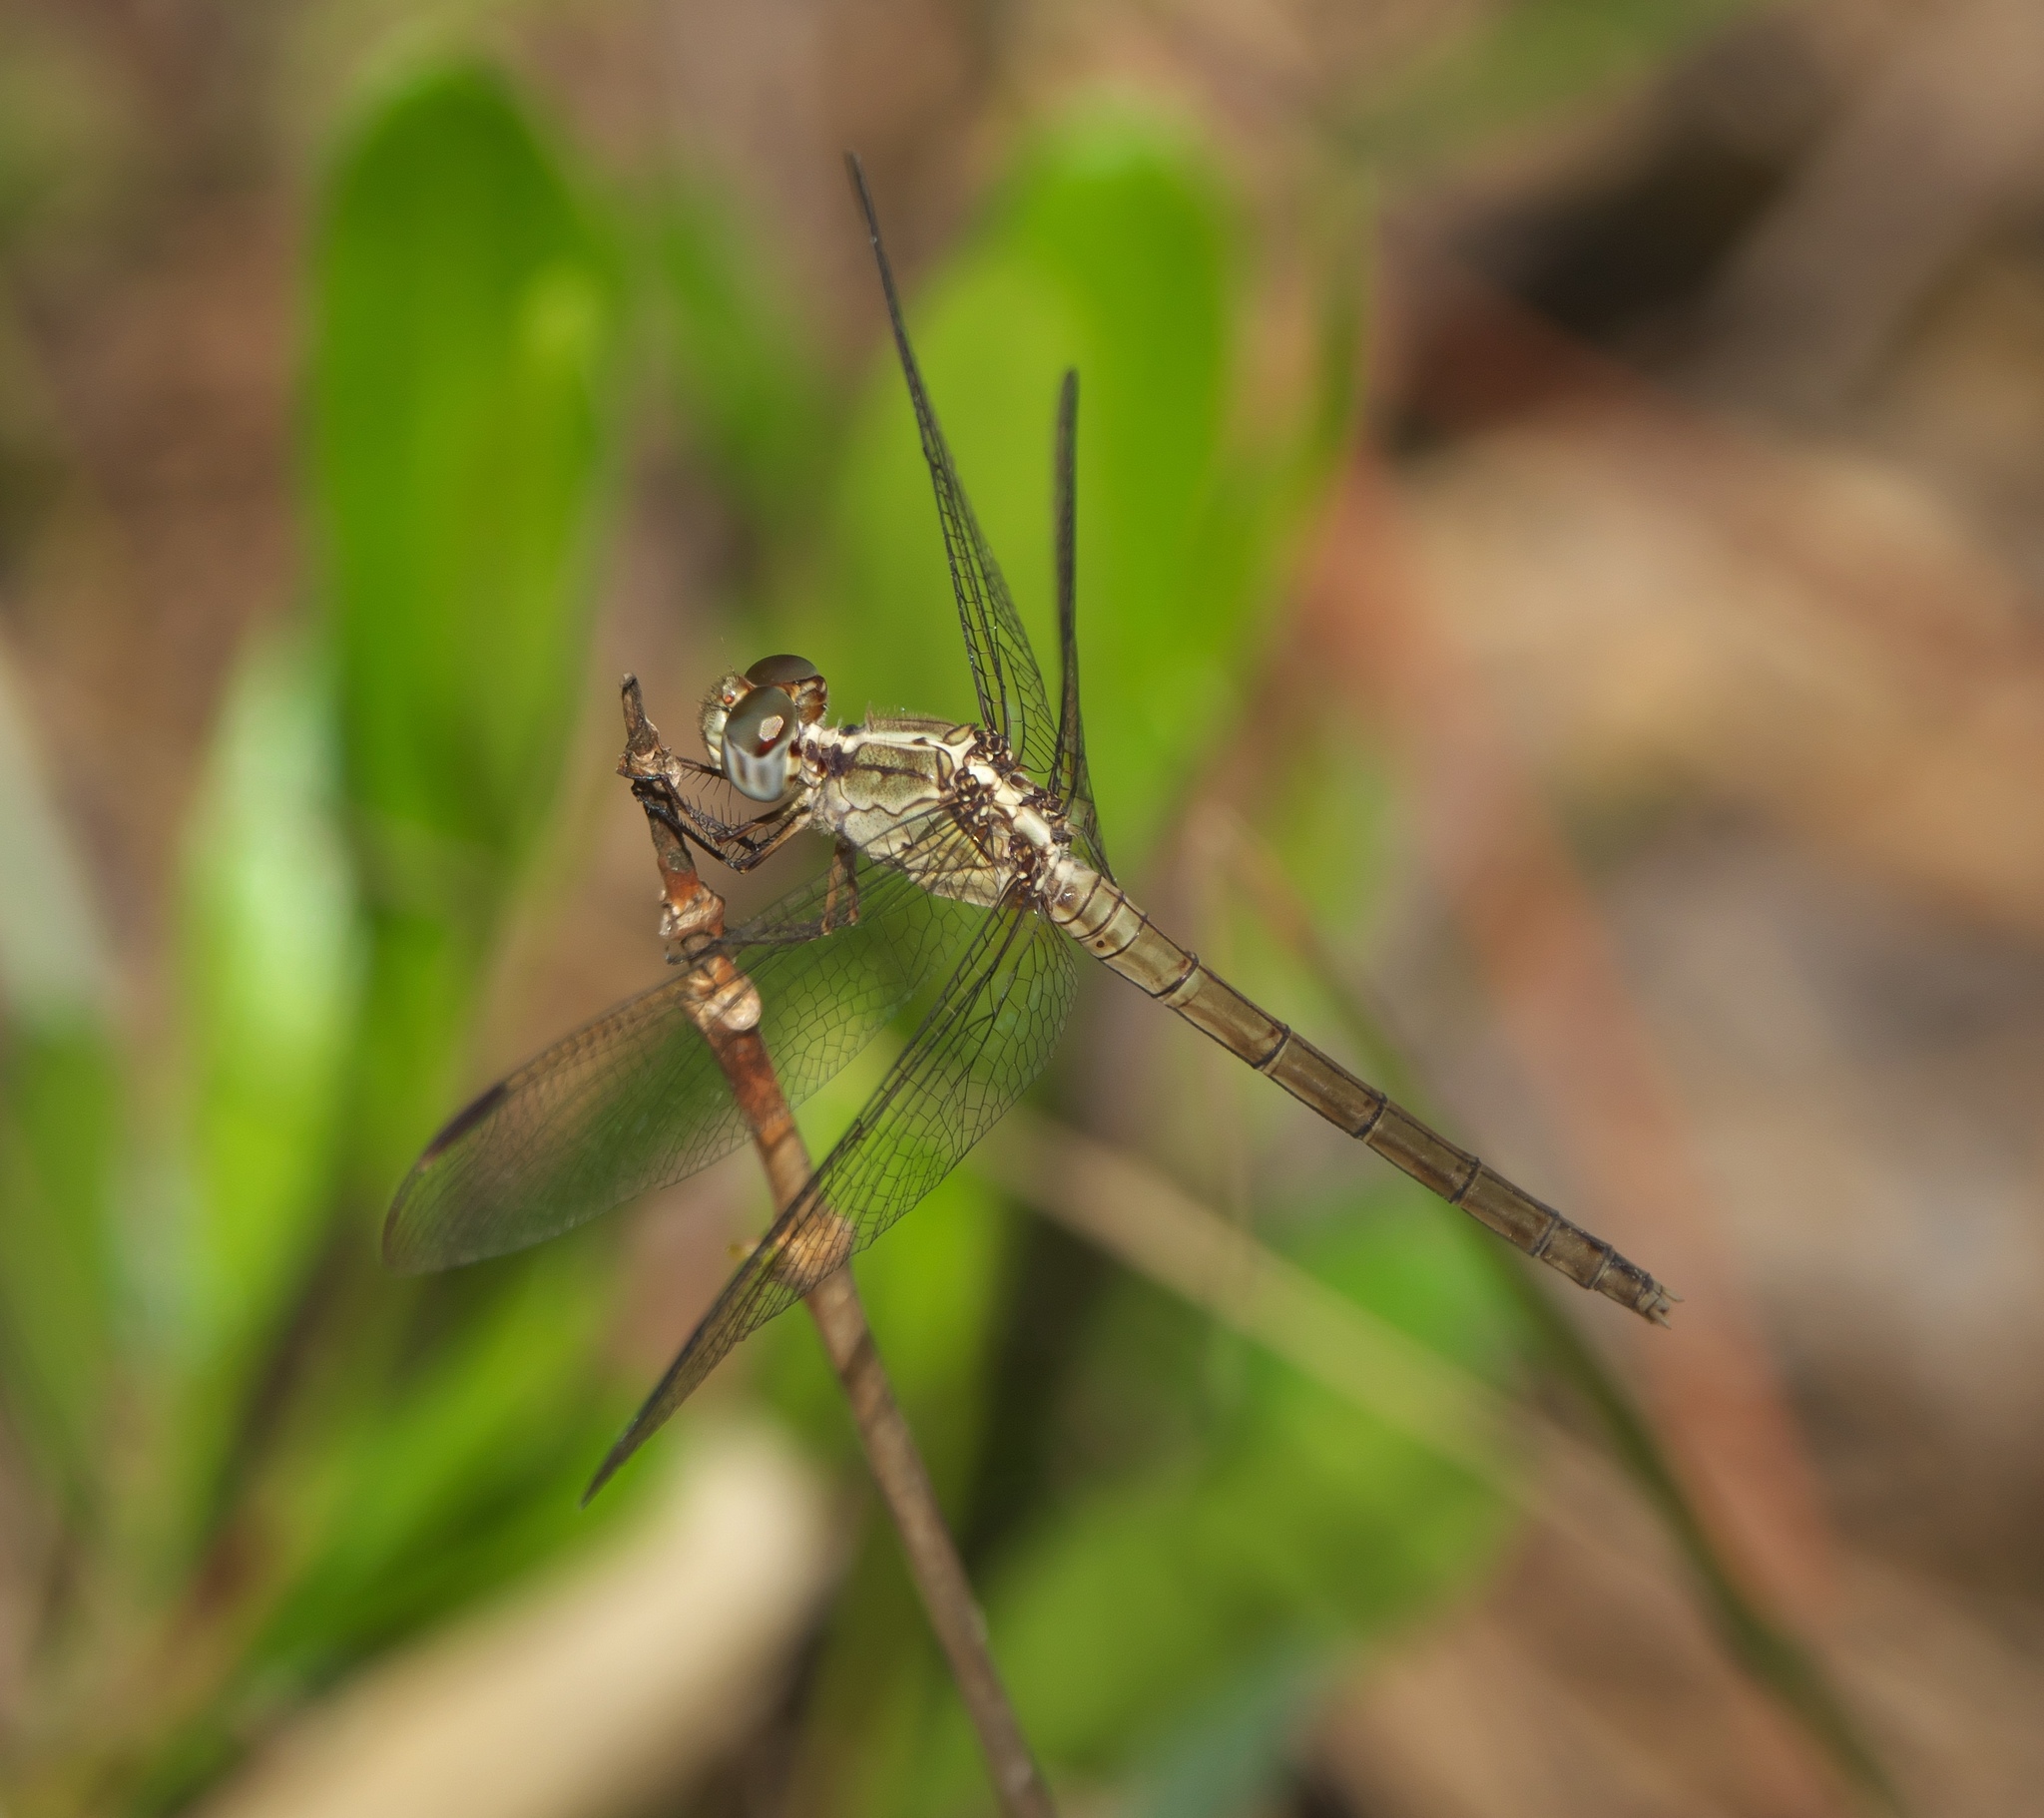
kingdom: Animalia
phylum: Arthropoda
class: Insecta
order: Odonata
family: Libellulidae
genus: Erythrodiplax
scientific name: Erythrodiplax umbrata
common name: Band-winged dragonlet
